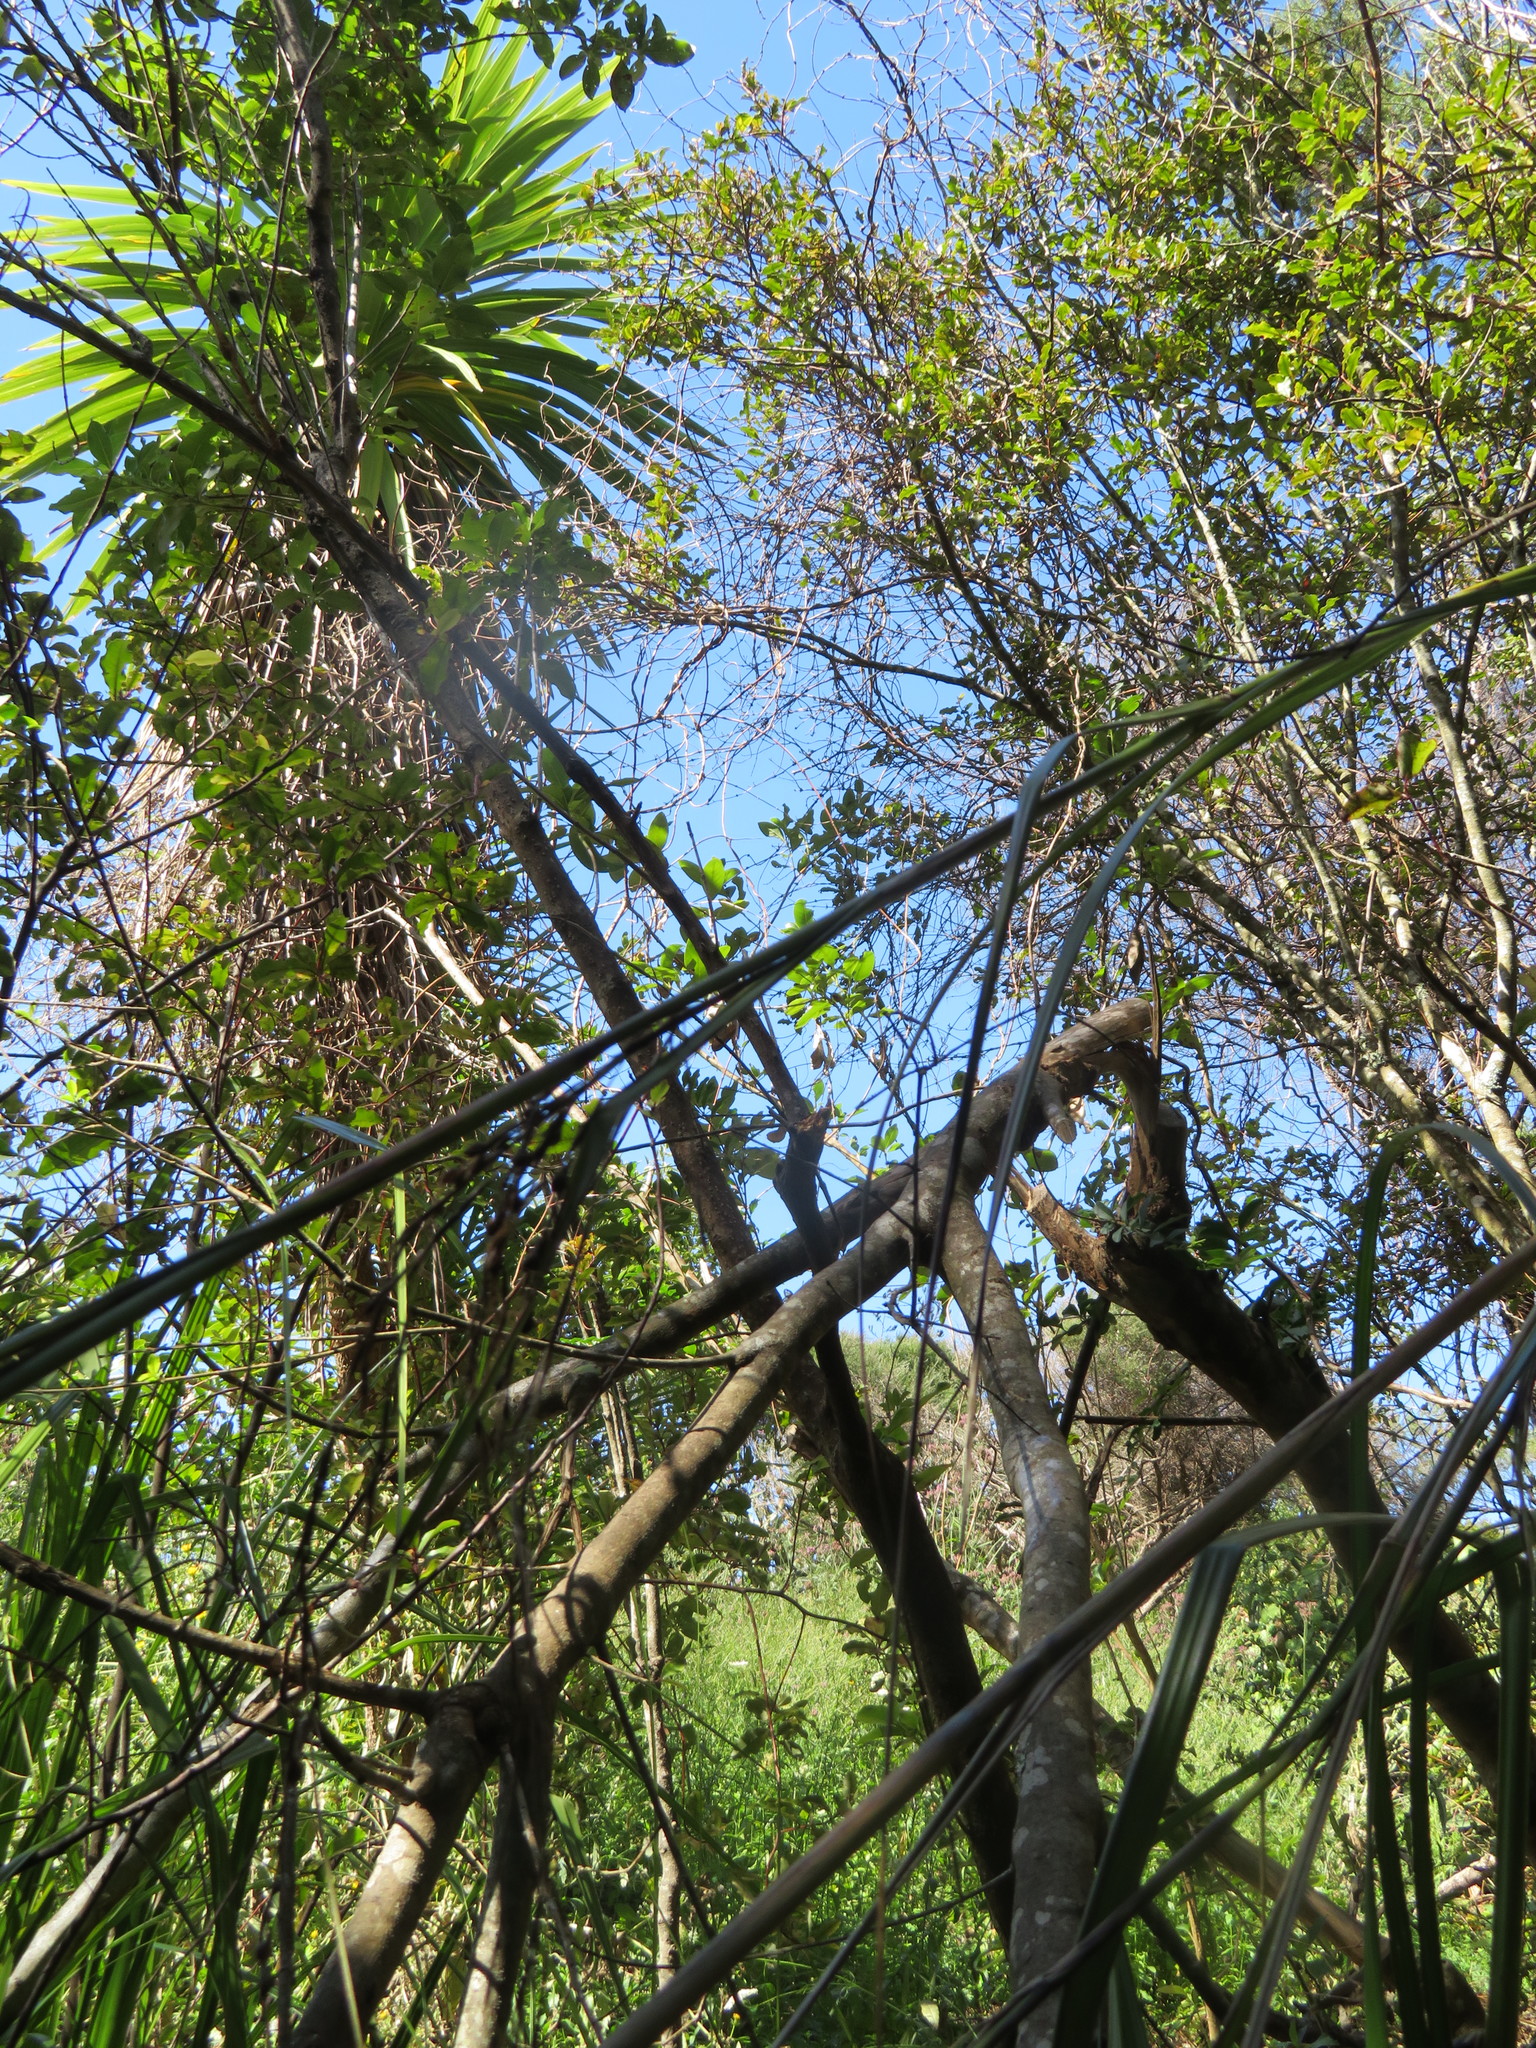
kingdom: Plantae
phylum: Tracheophyta
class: Magnoliopsida
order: Lamiales
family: Oleaceae
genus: Ligustrum
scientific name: Ligustrum sinense
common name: Chinese privet
